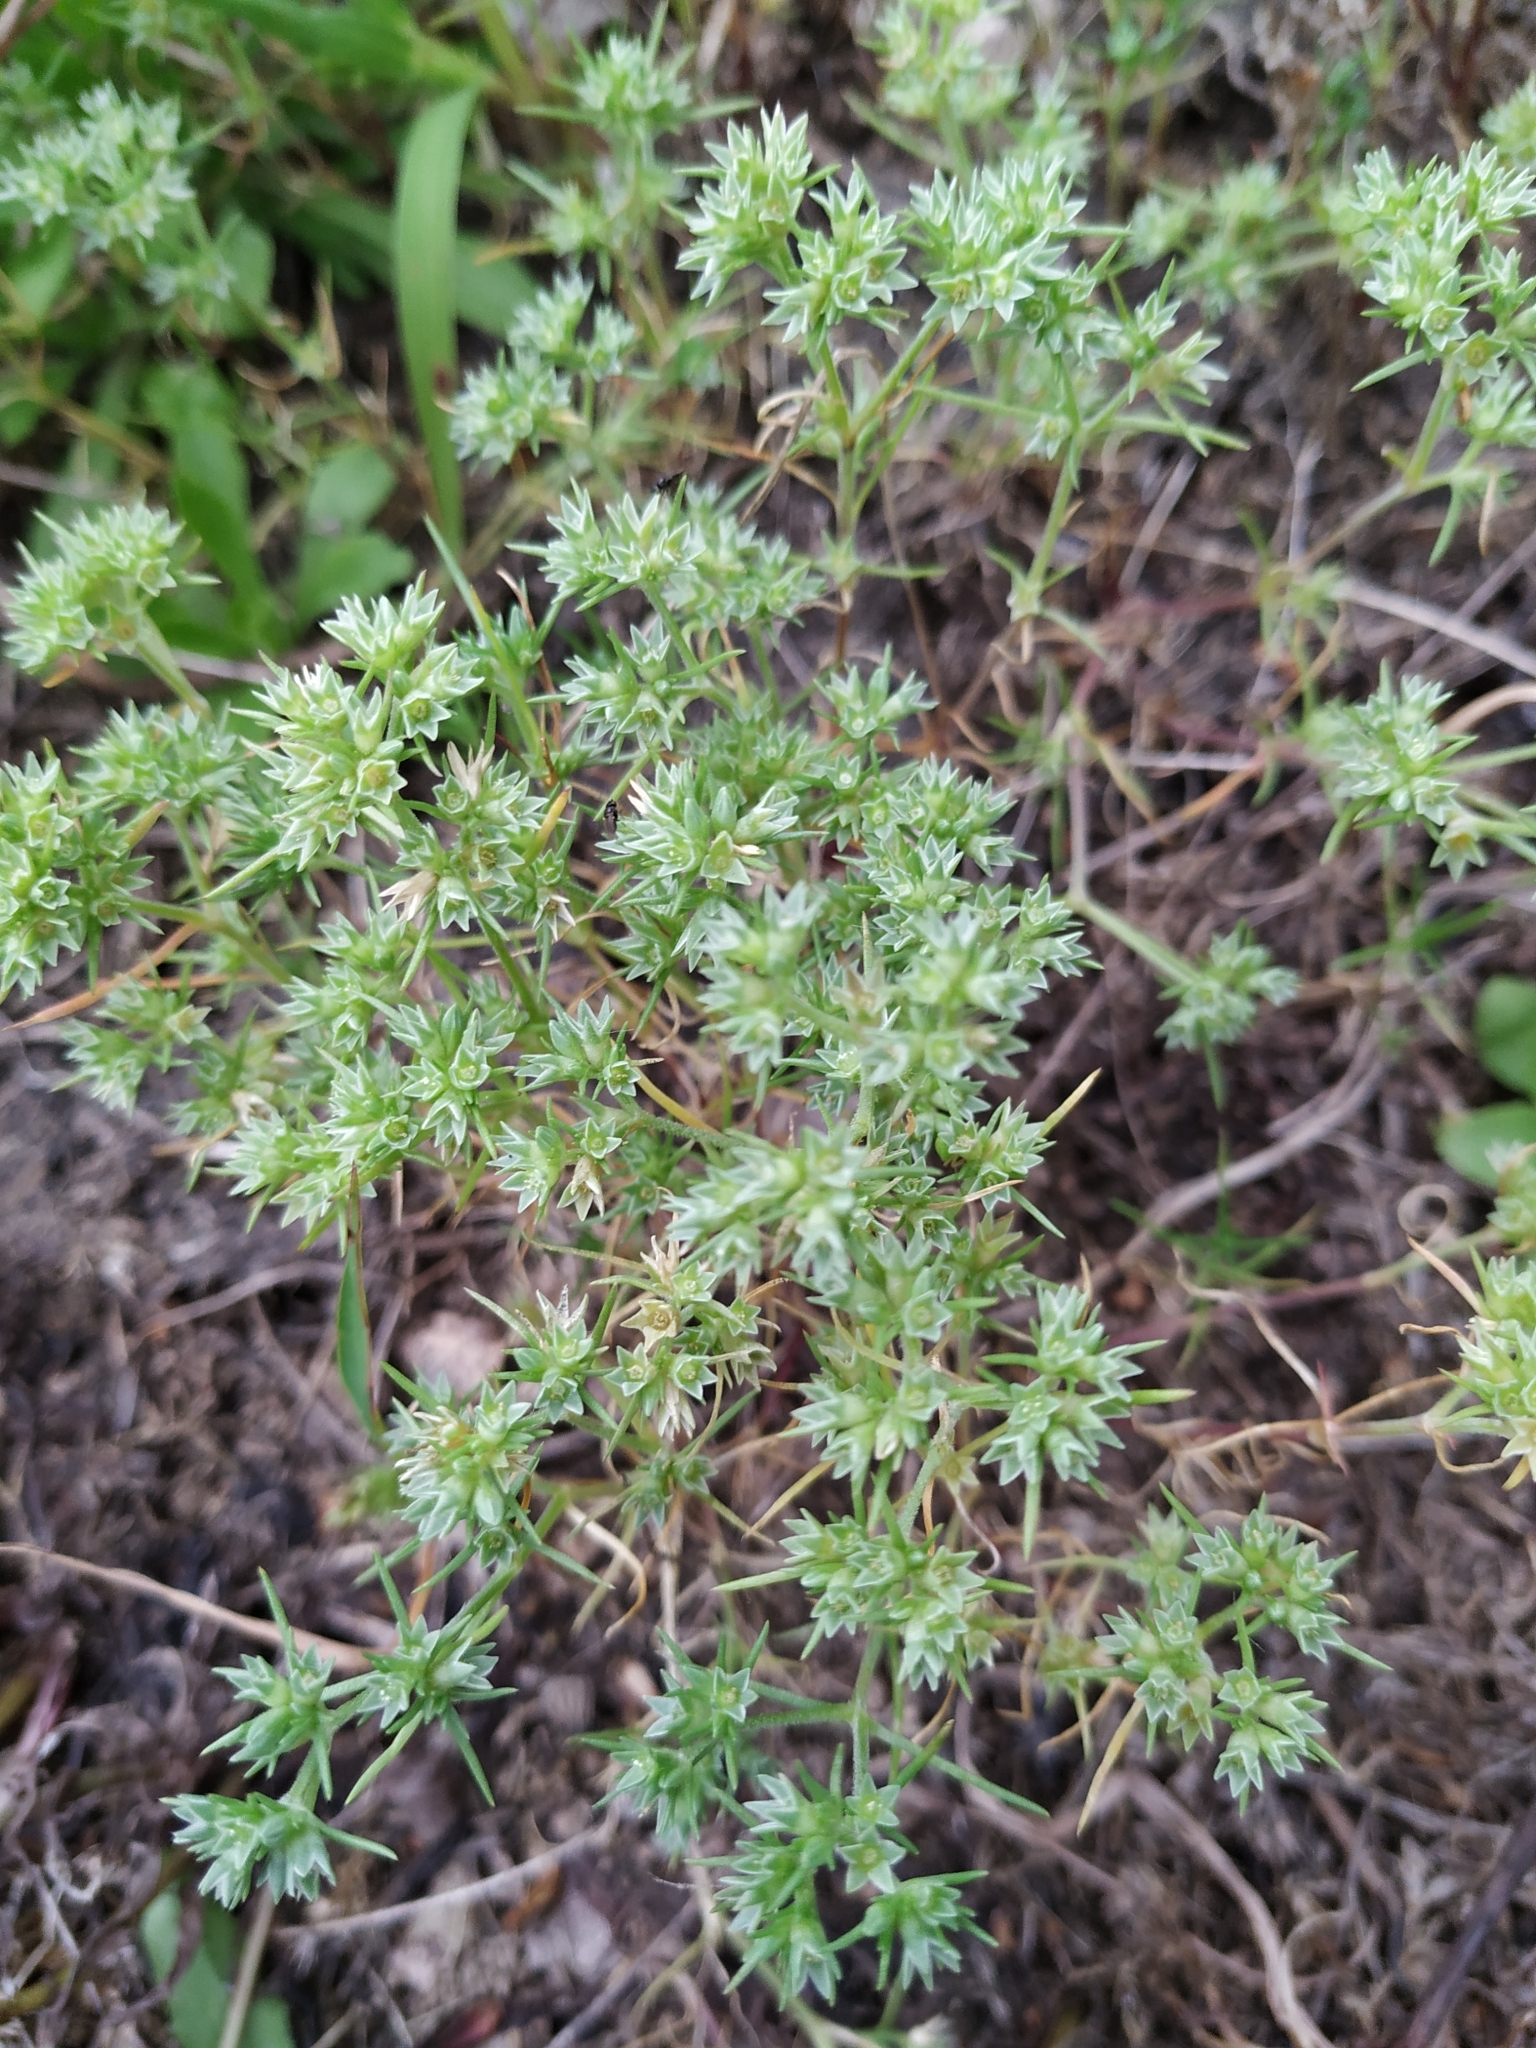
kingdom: Plantae
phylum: Tracheophyta
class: Magnoliopsida
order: Caryophyllales
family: Caryophyllaceae
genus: Scleranthus
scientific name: Scleranthus annuus
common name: Annual knawel
